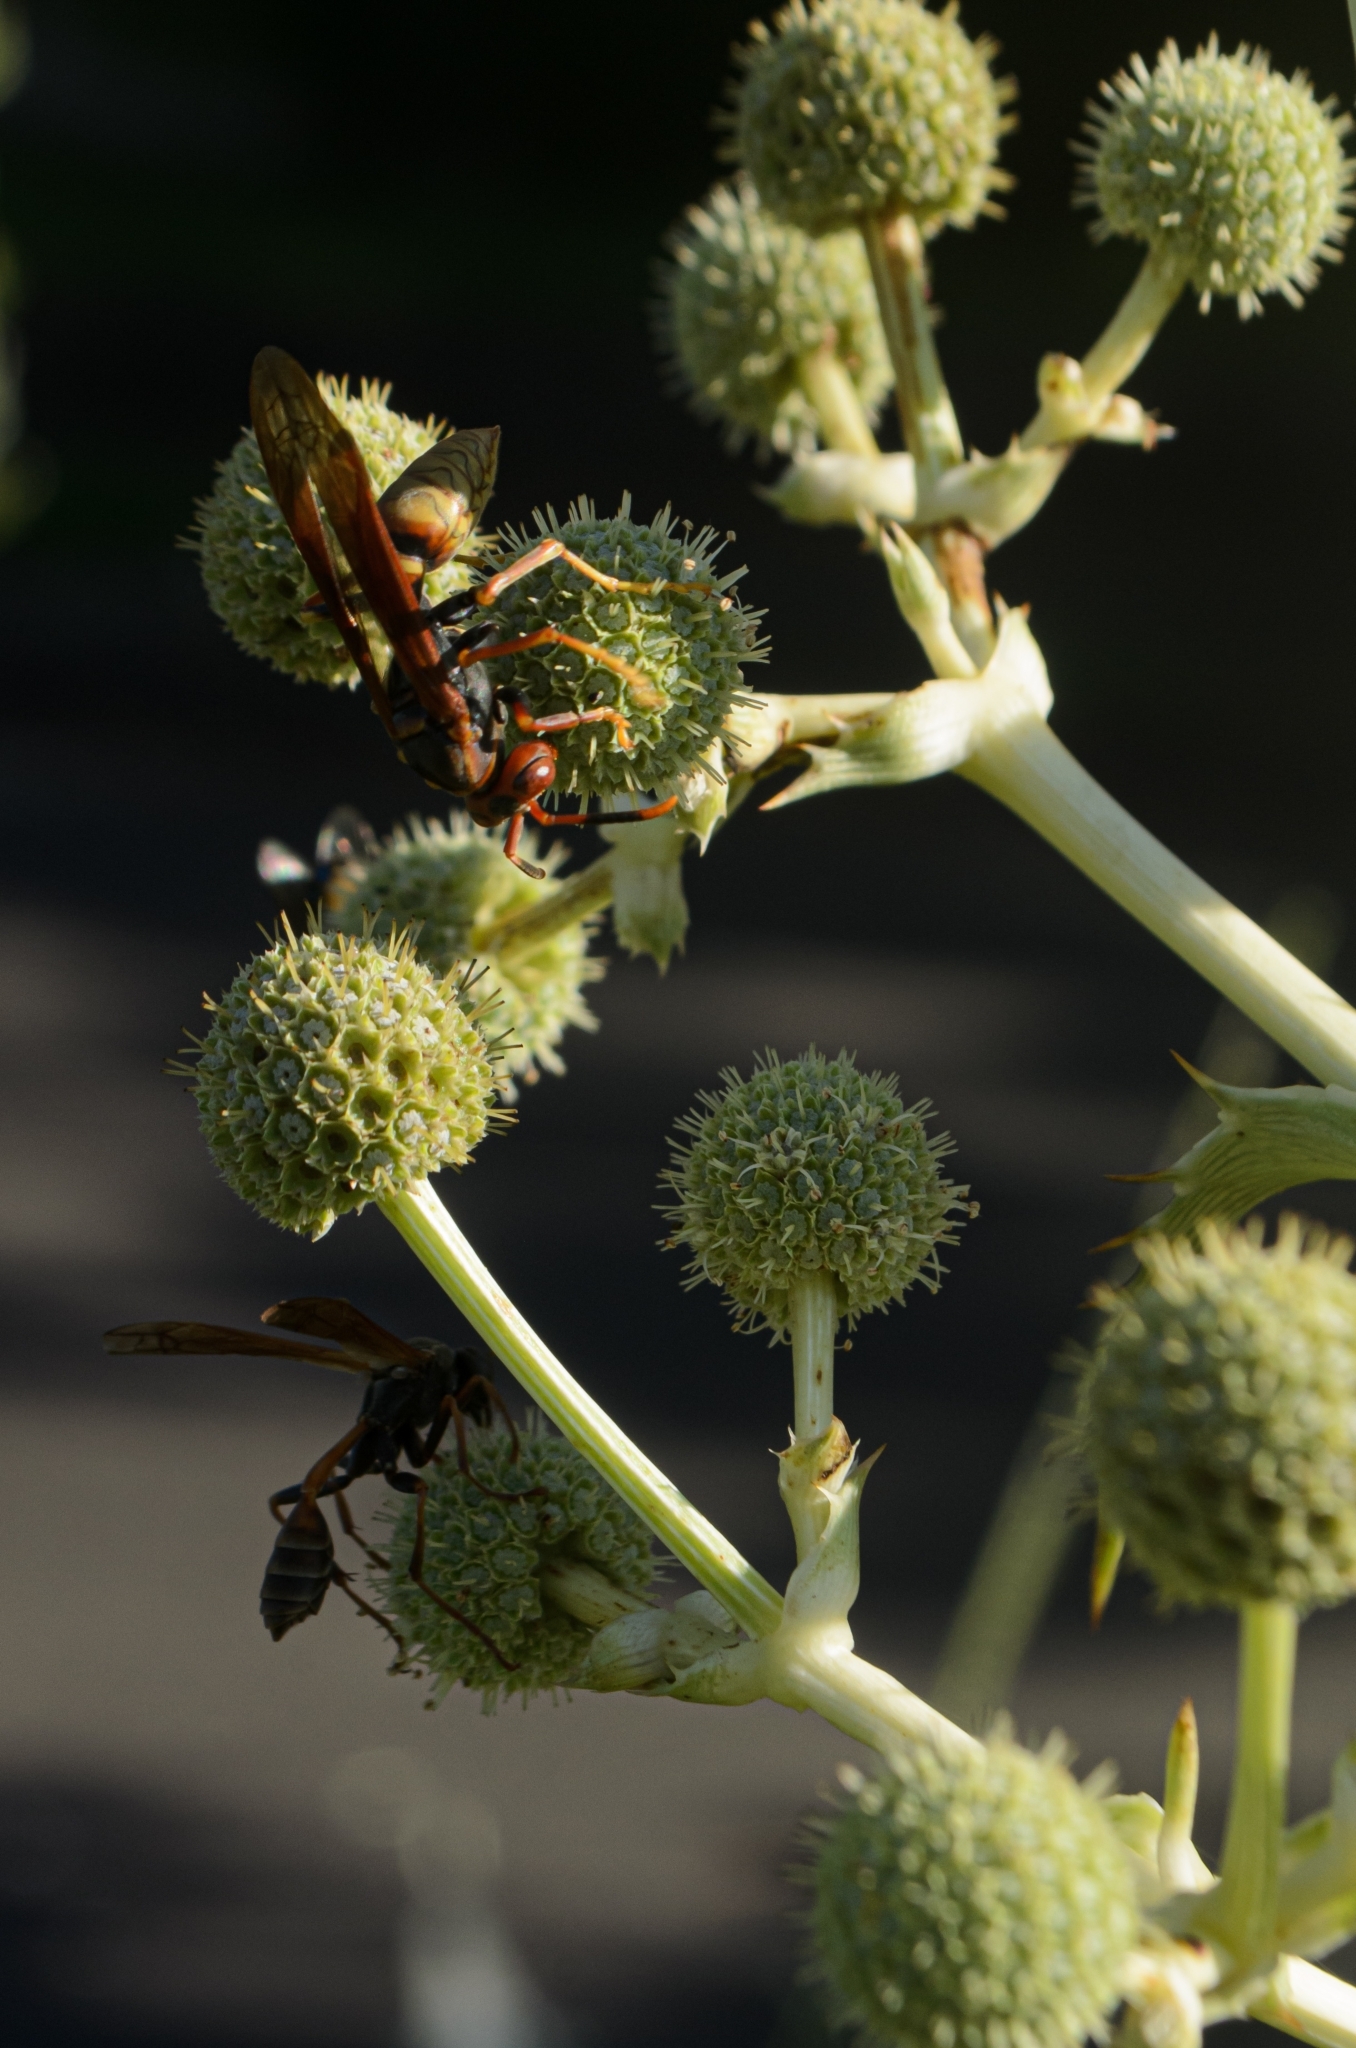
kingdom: Animalia
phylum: Arthropoda
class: Insecta
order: Hymenoptera
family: Eumenidae
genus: Polistes
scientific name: Polistes cavapytiformis
